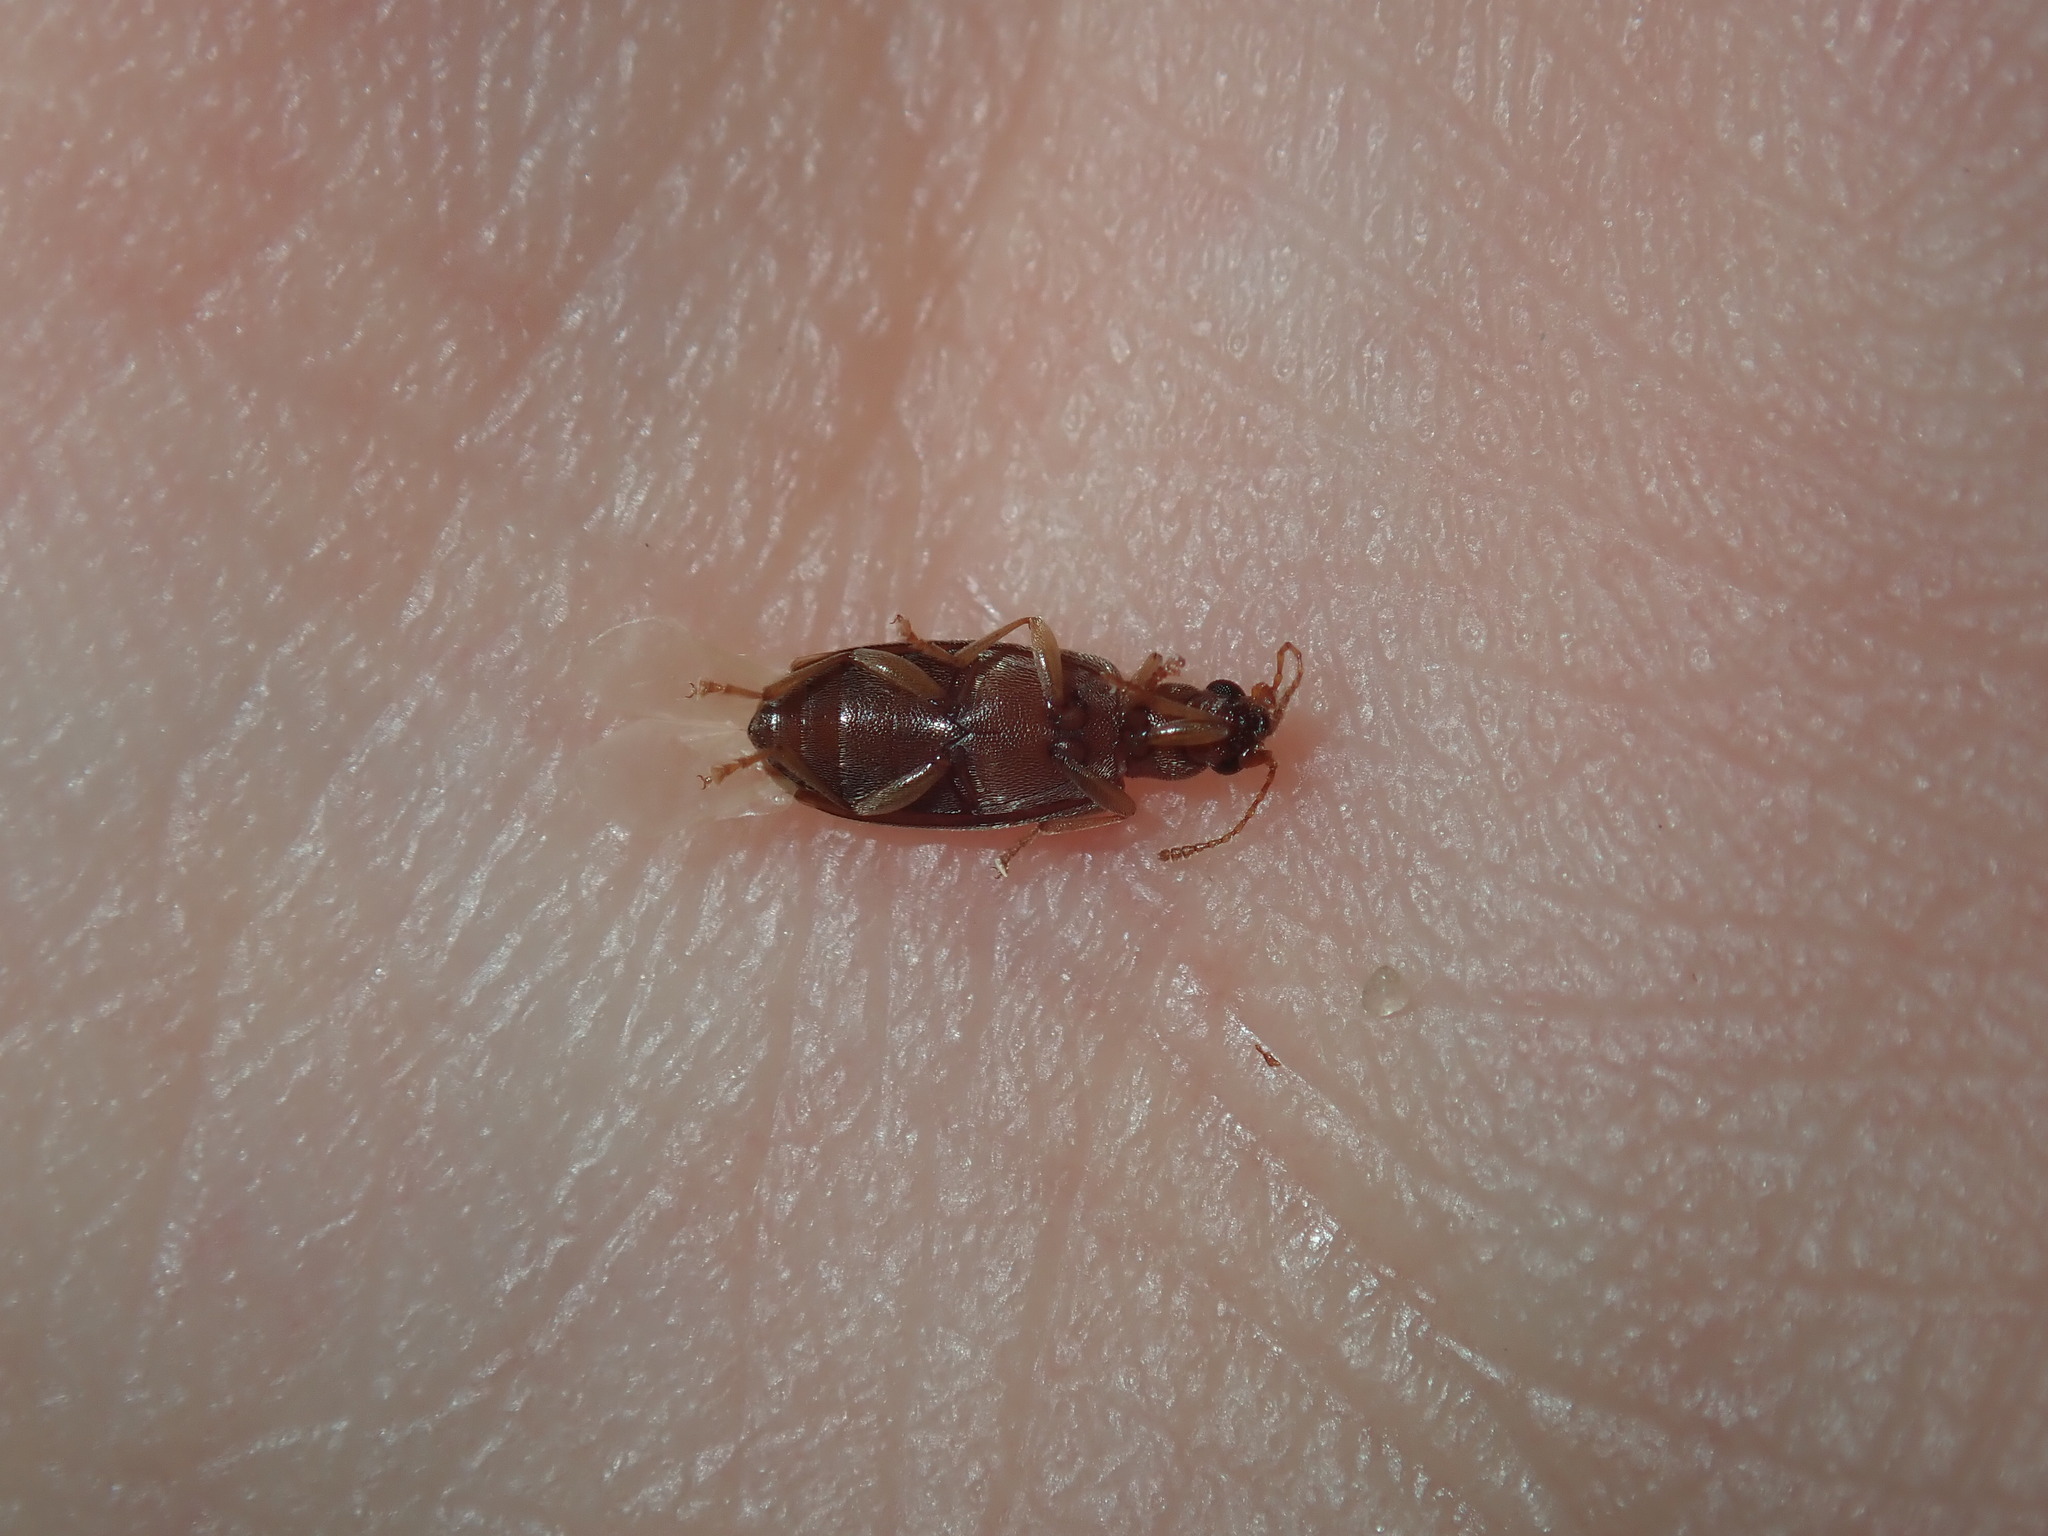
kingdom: Animalia
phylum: Arthropoda
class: Insecta
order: Coleoptera
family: Anthicidae
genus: Lagrioida
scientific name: Lagrioida
